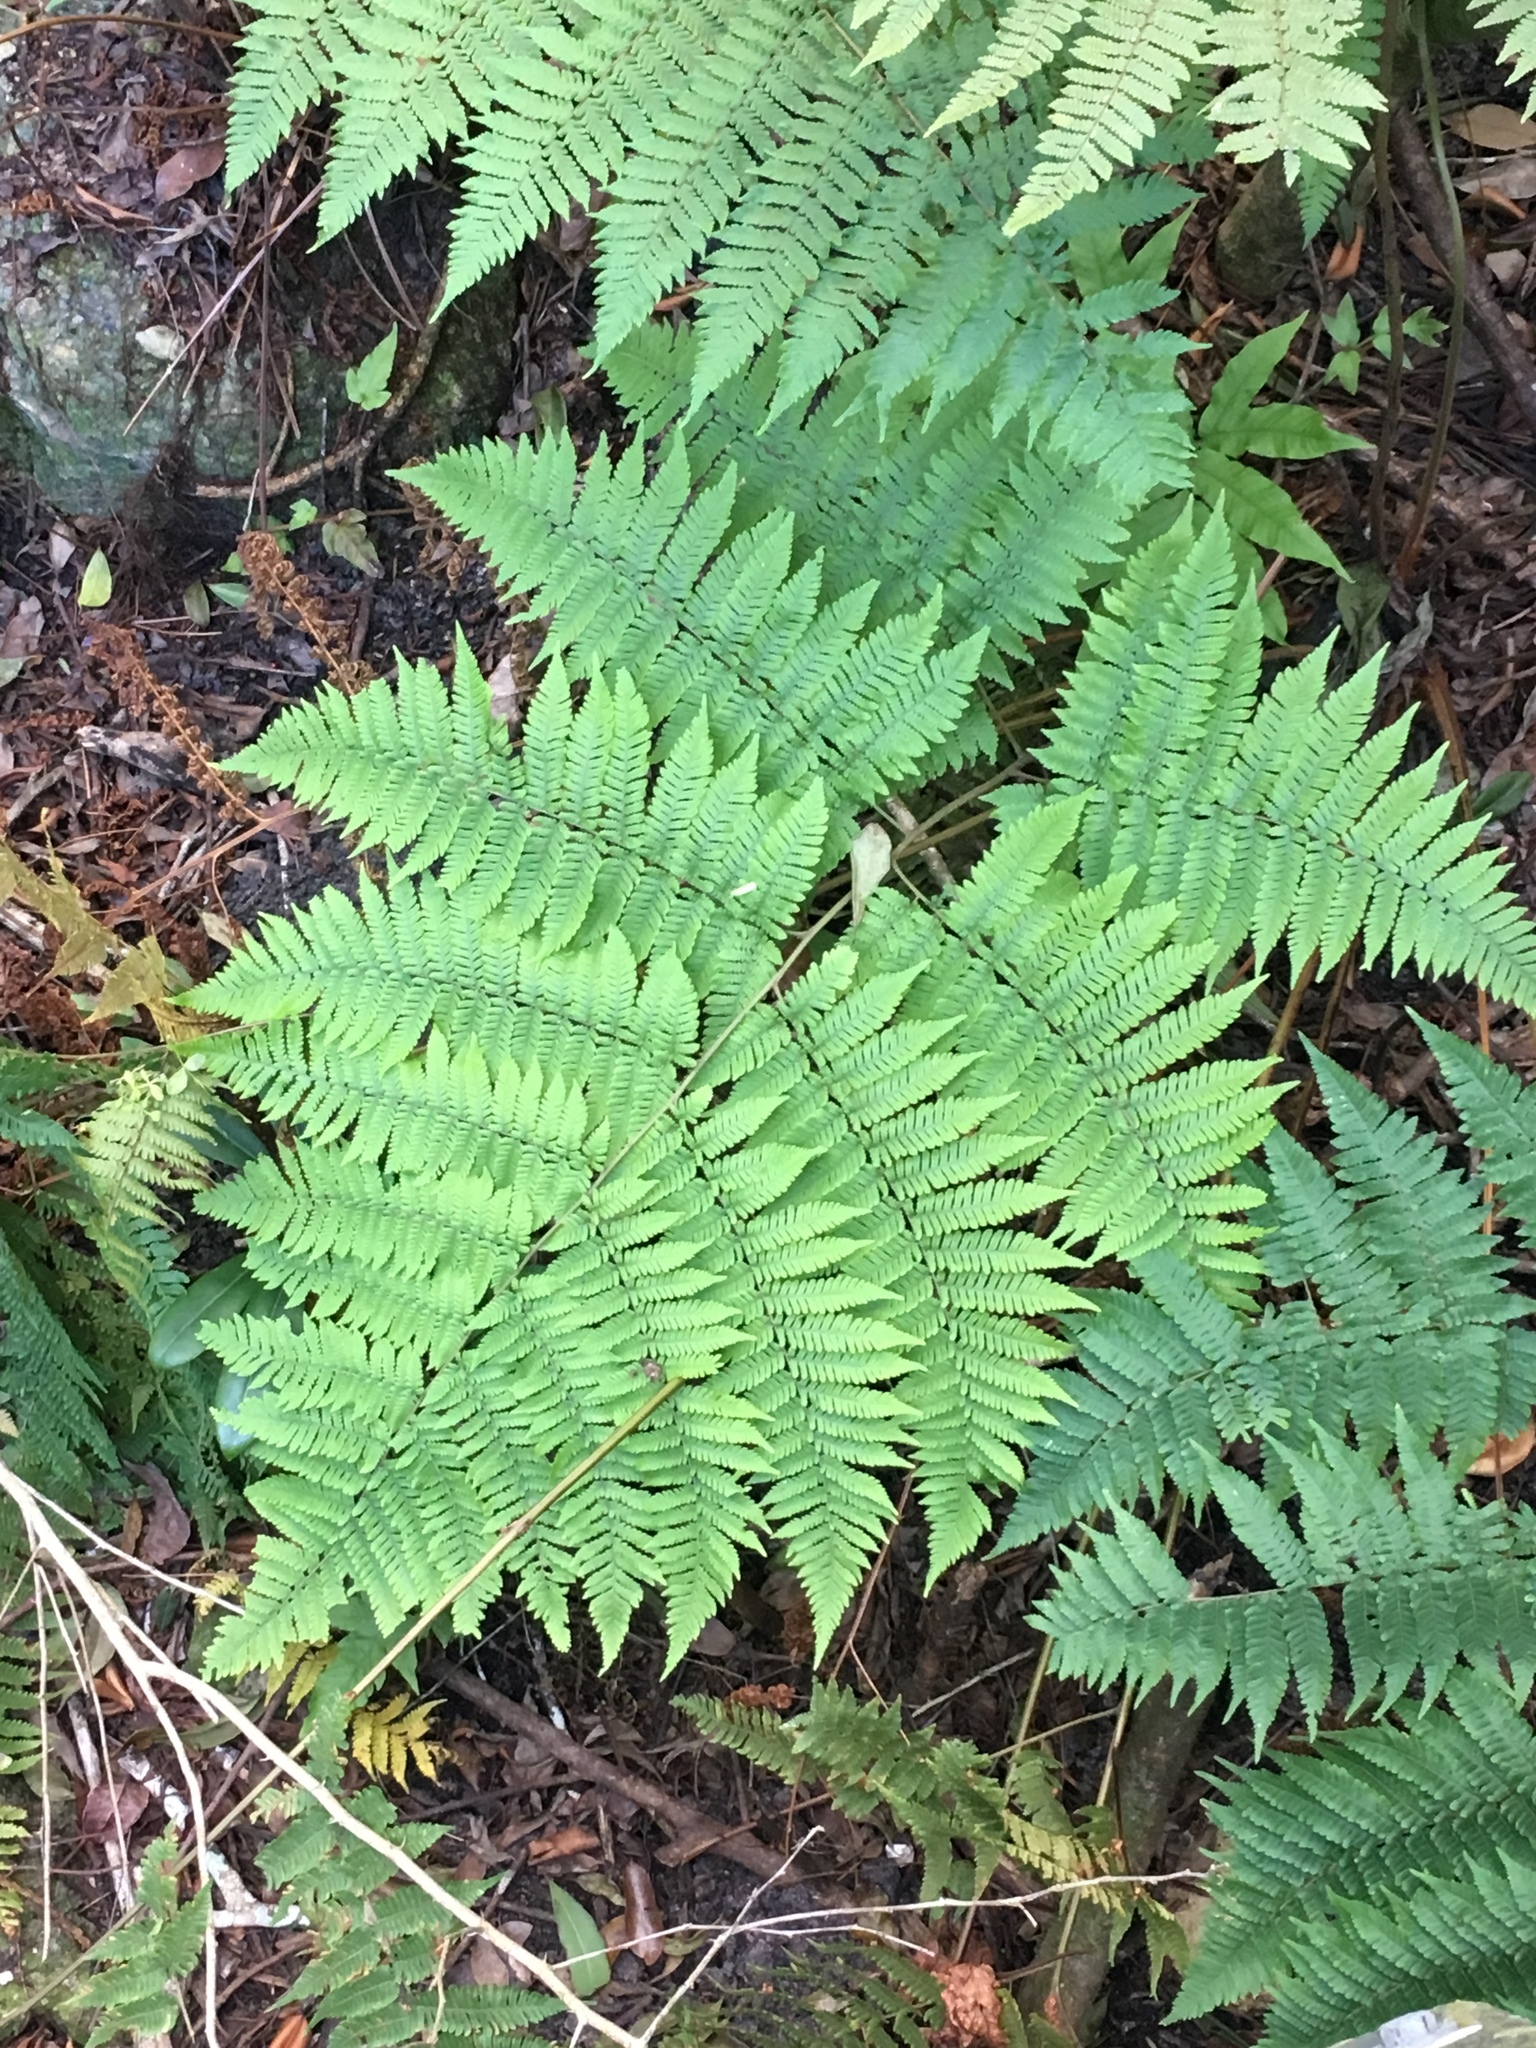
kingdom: Plantae
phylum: Tracheophyta
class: Polypodiopsida
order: Polypodiales
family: Dryopteridaceae
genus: Ctenitis
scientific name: Ctenitis sloanei
